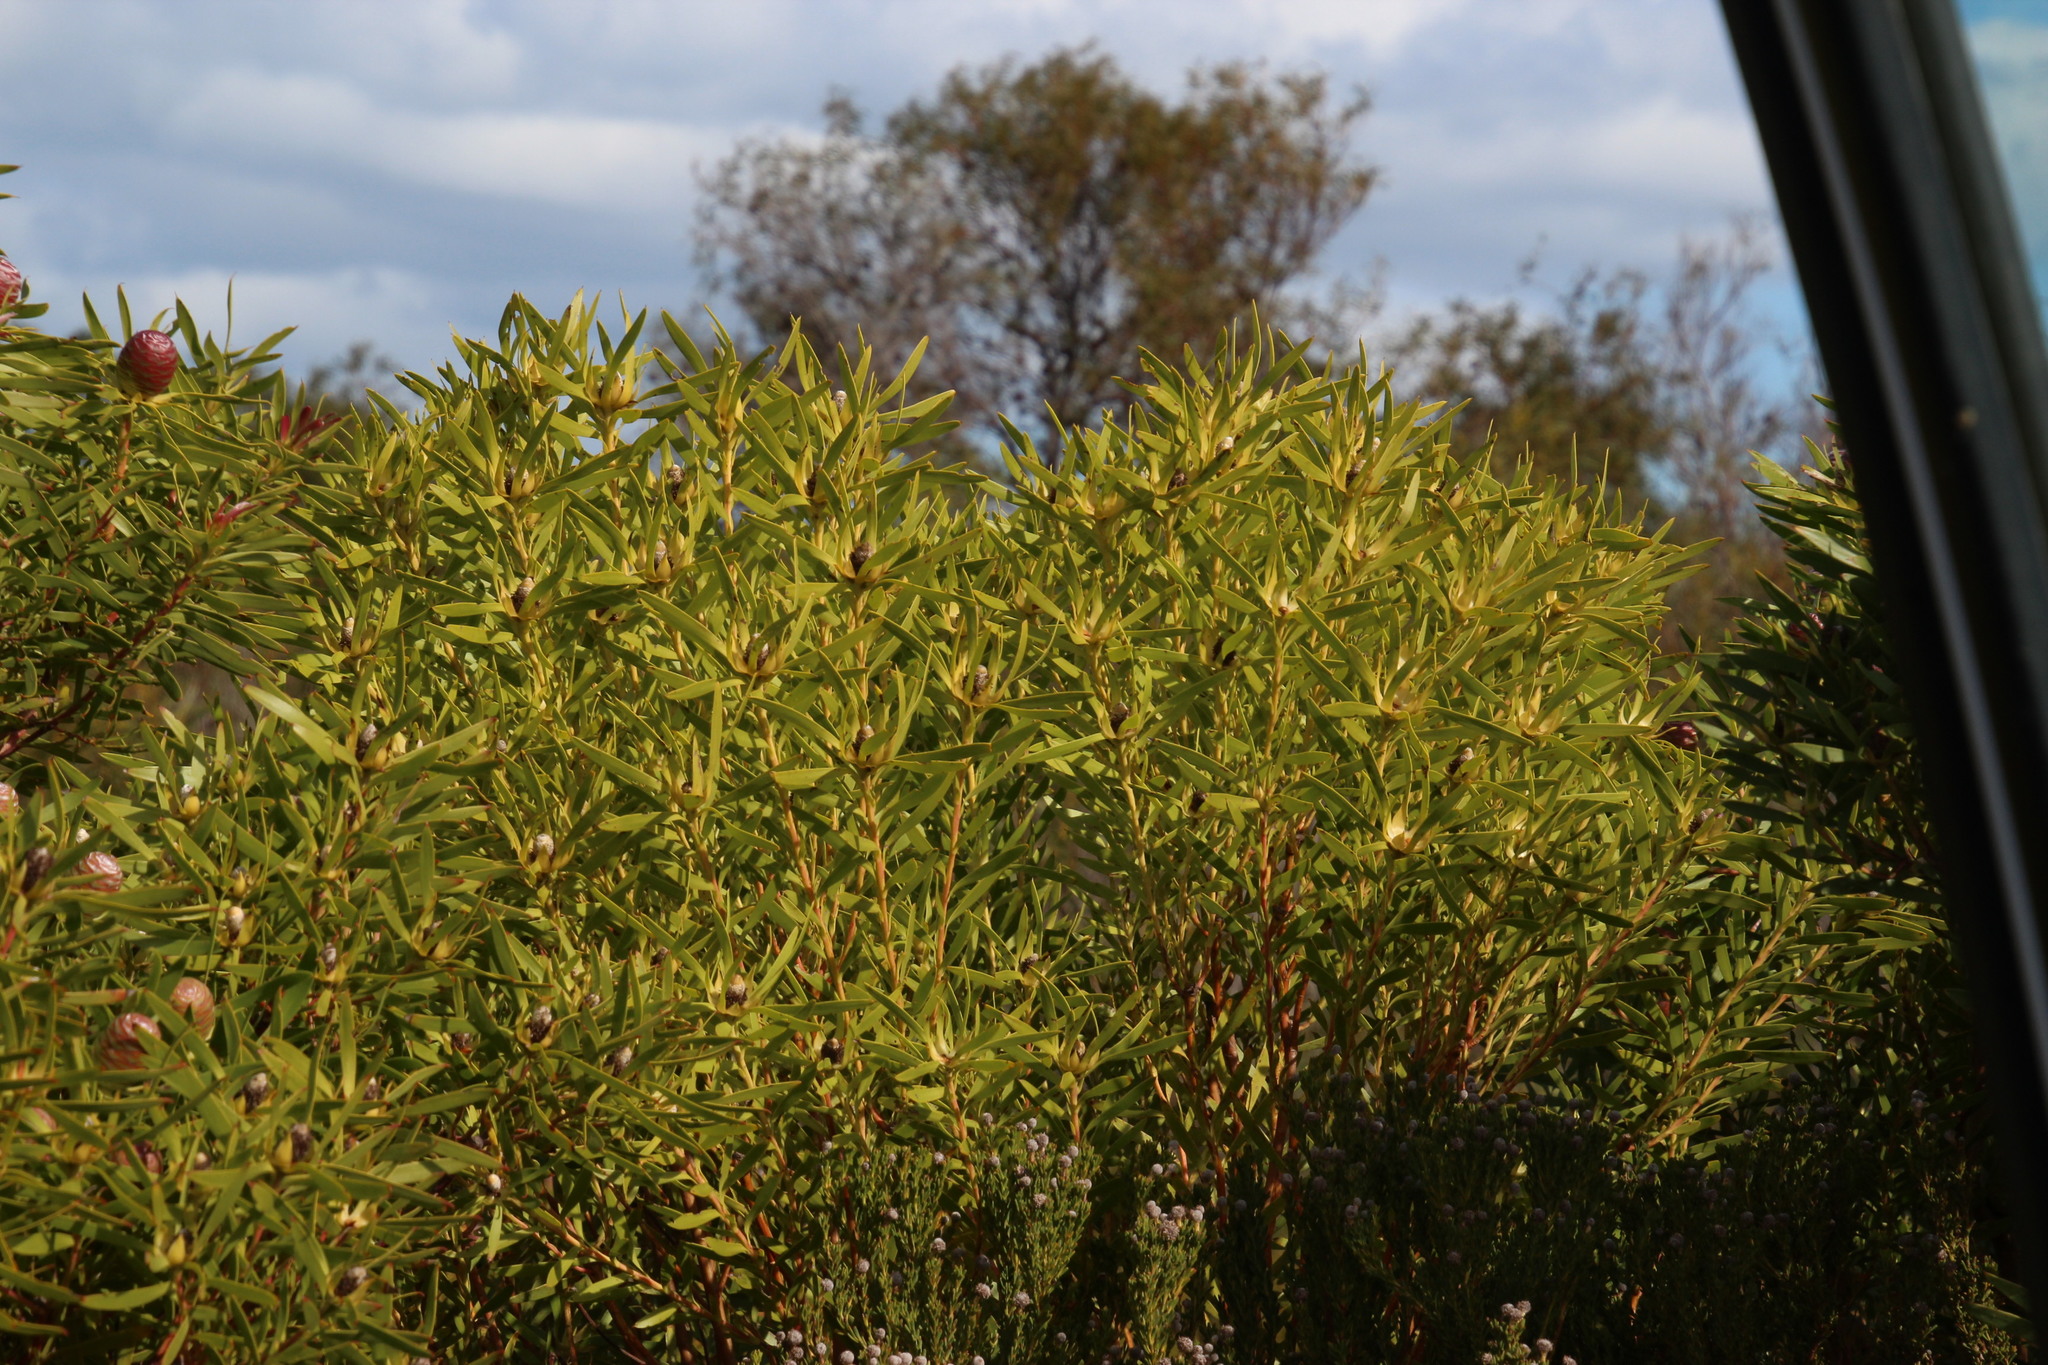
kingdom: Plantae
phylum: Tracheophyta
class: Magnoliopsida
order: Proteales
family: Proteaceae
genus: Leucadendron
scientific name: Leucadendron coniferum
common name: Dune conebush
